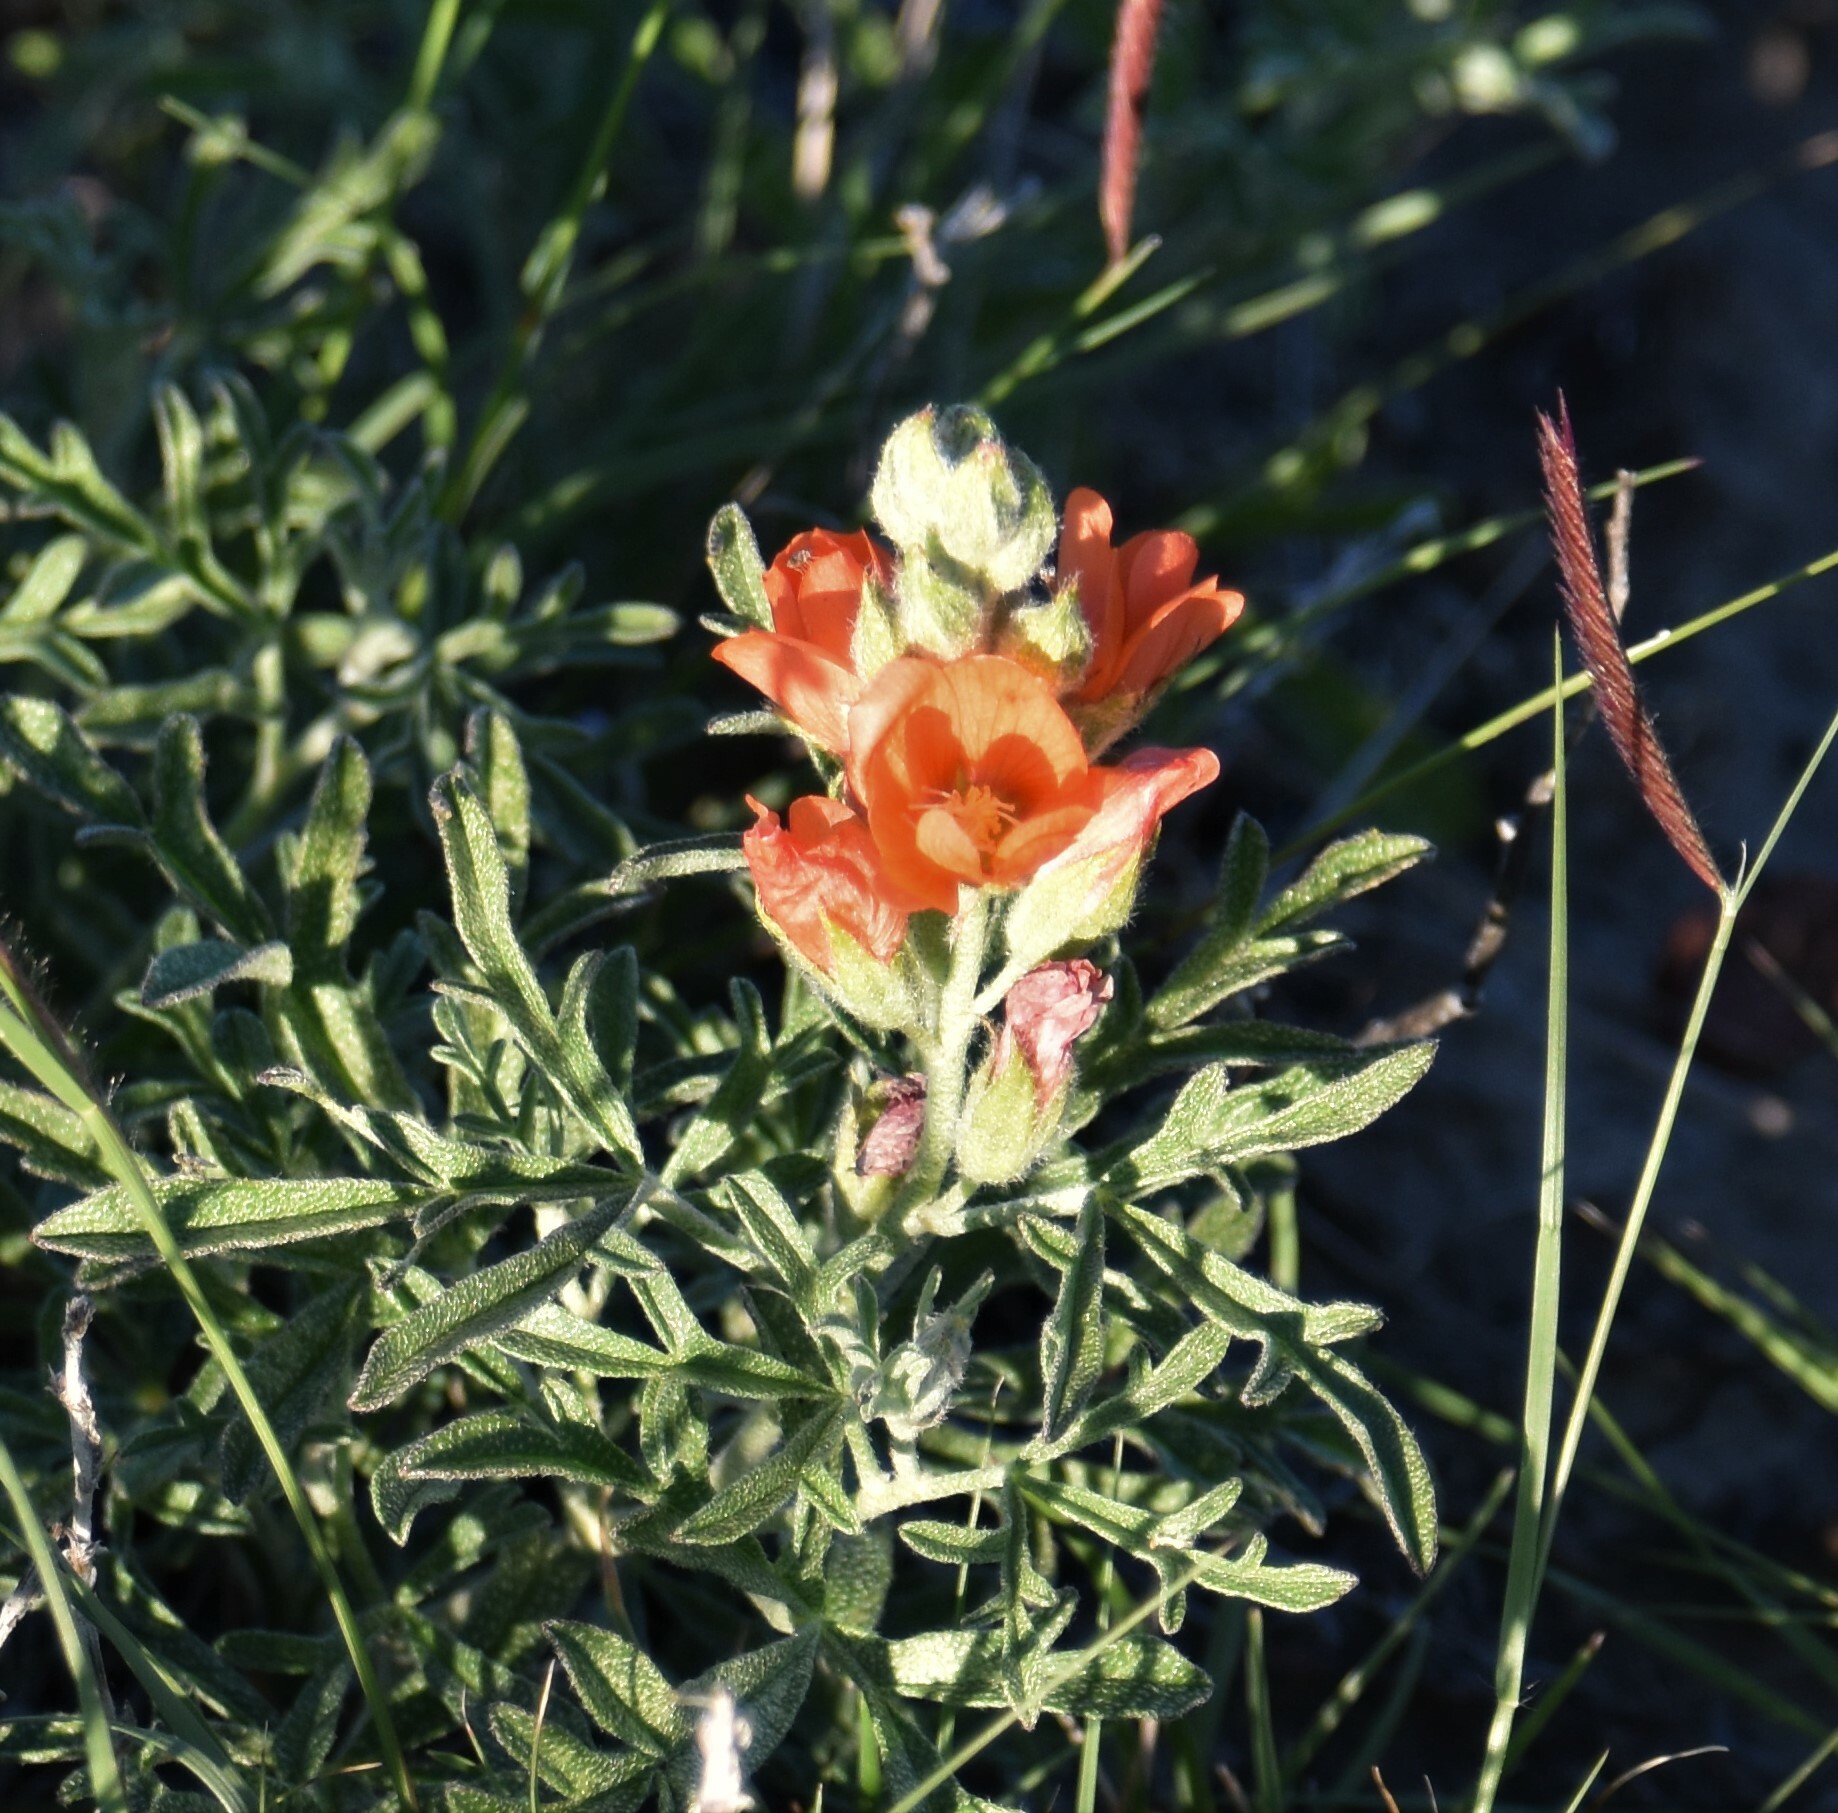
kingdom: Plantae
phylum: Tracheophyta
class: Magnoliopsida
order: Malvales
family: Malvaceae
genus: Sphaeralcea
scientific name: Sphaeralcea coccinea
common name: Moss-rose
